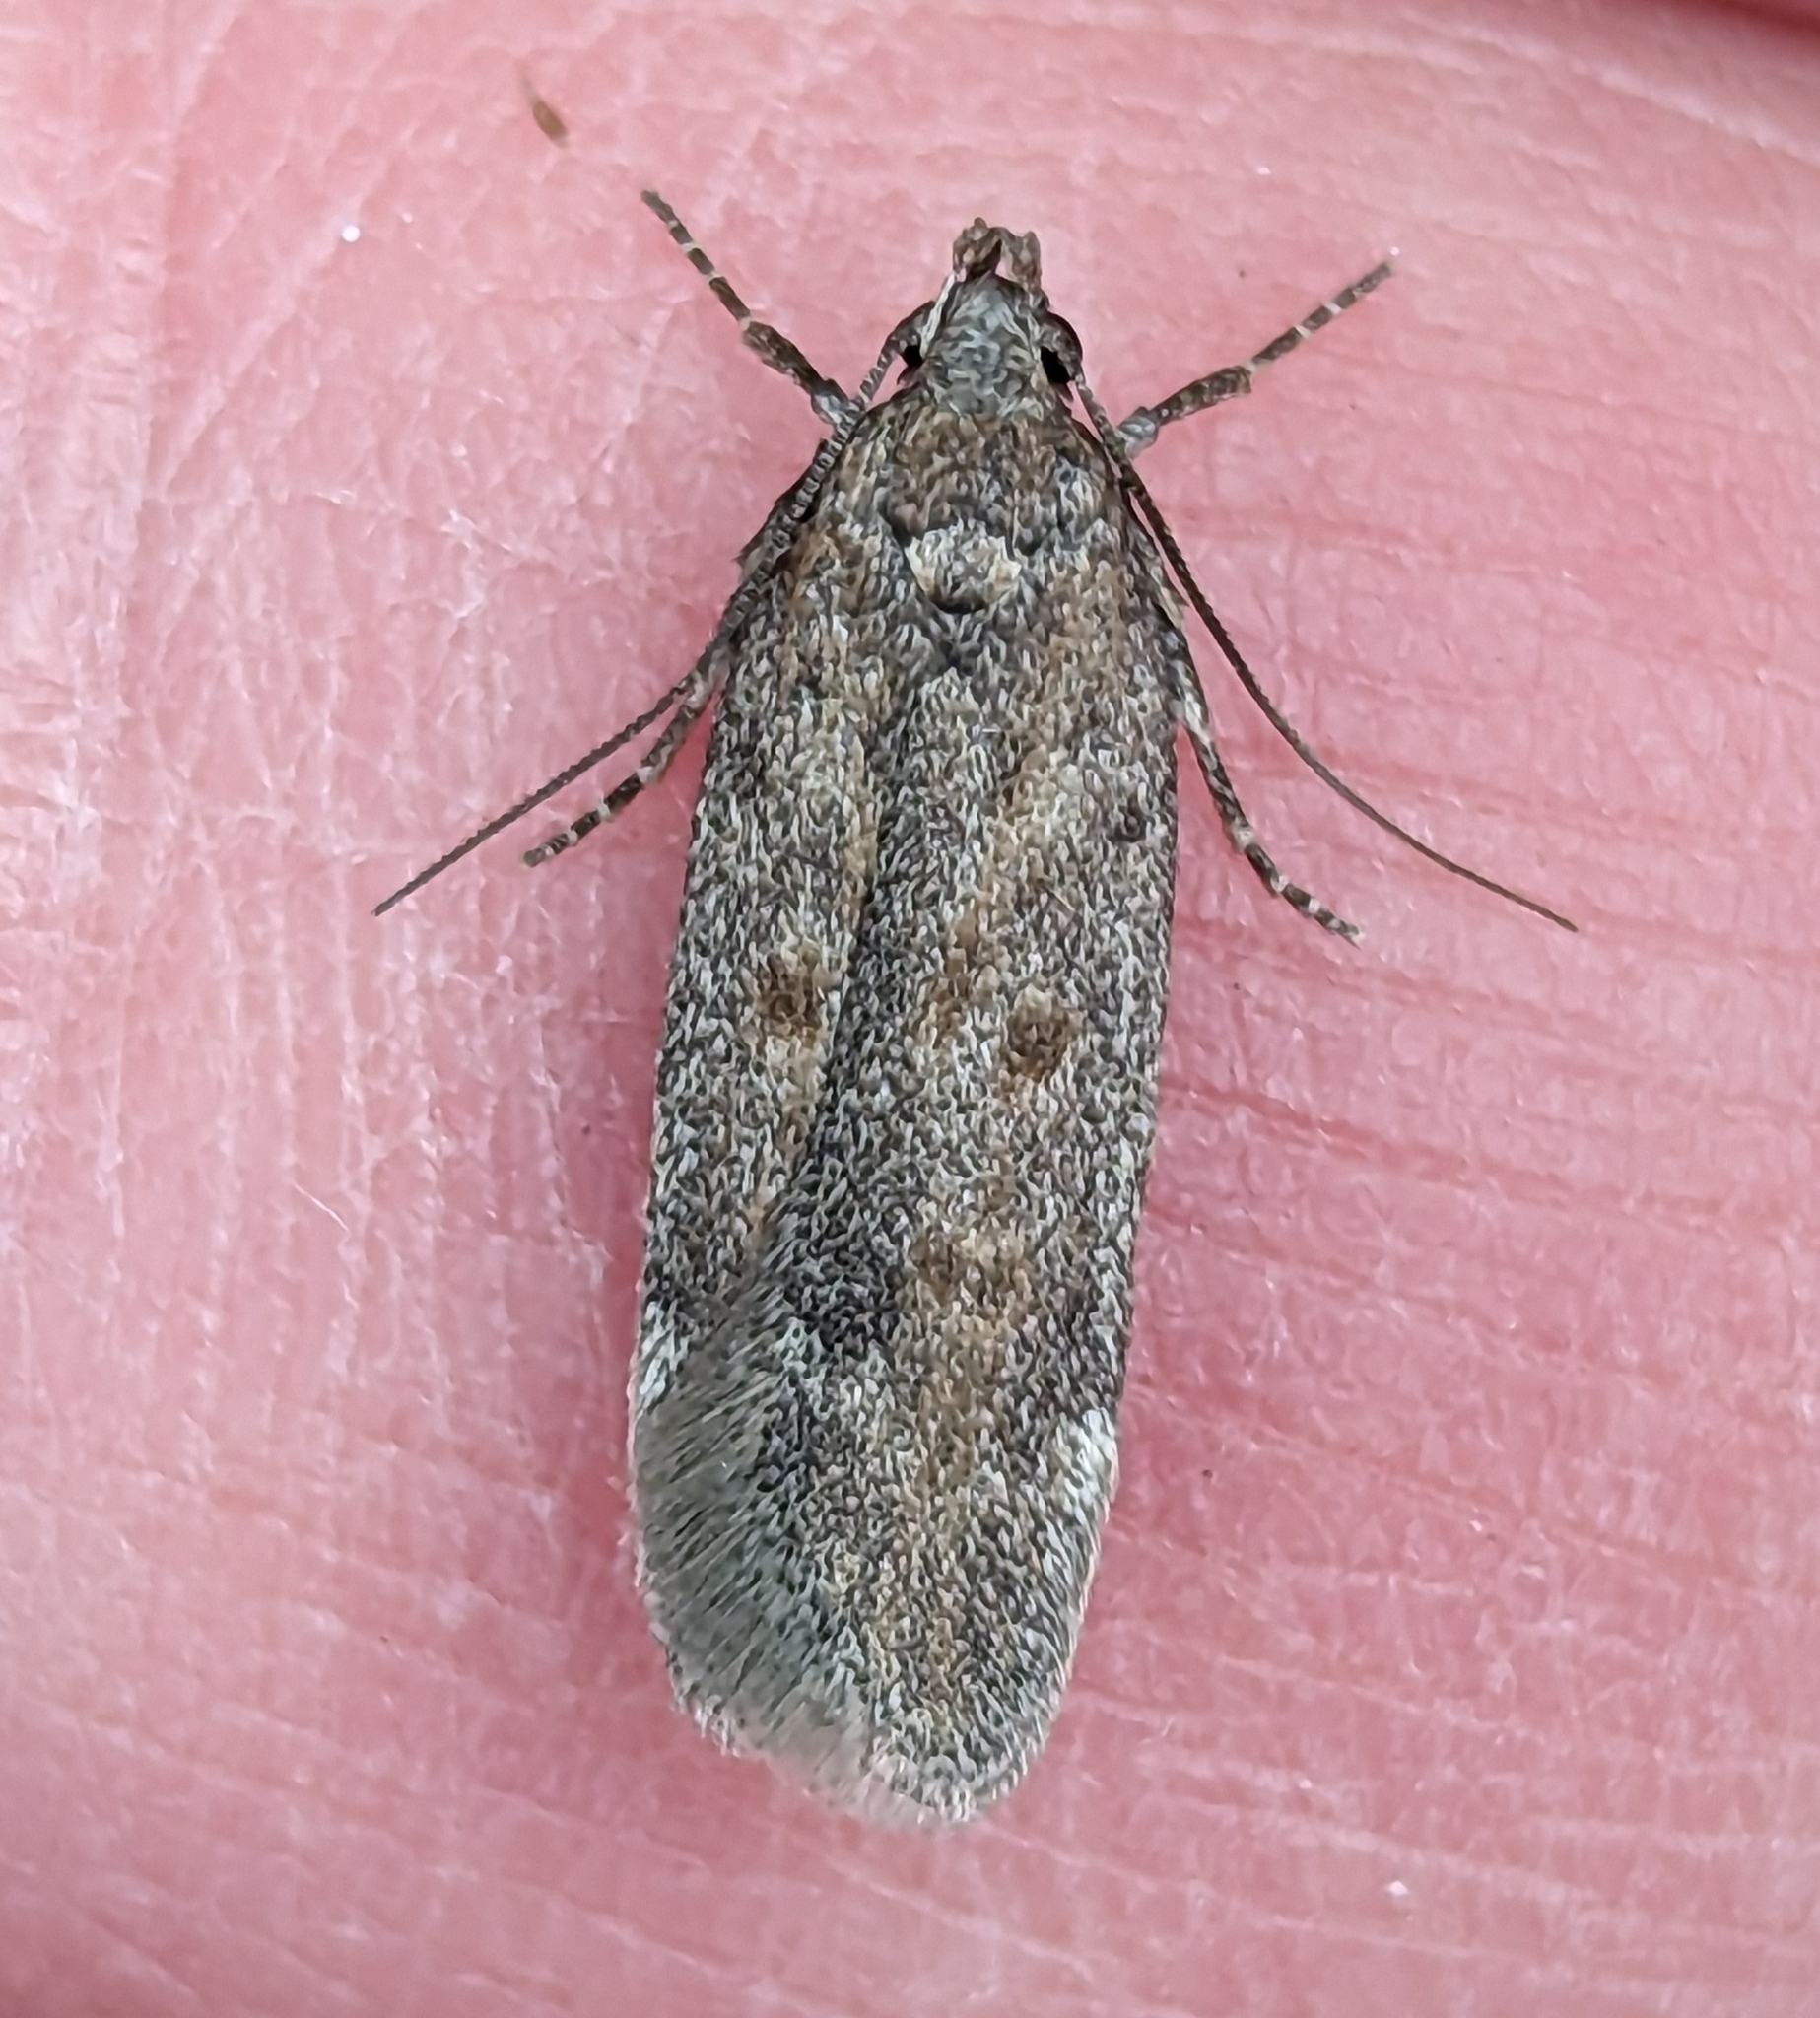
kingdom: Animalia
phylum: Arthropoda
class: Insecta
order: Lepidoptera
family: Gelechiidae
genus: Filatima
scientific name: Filatima abactella
